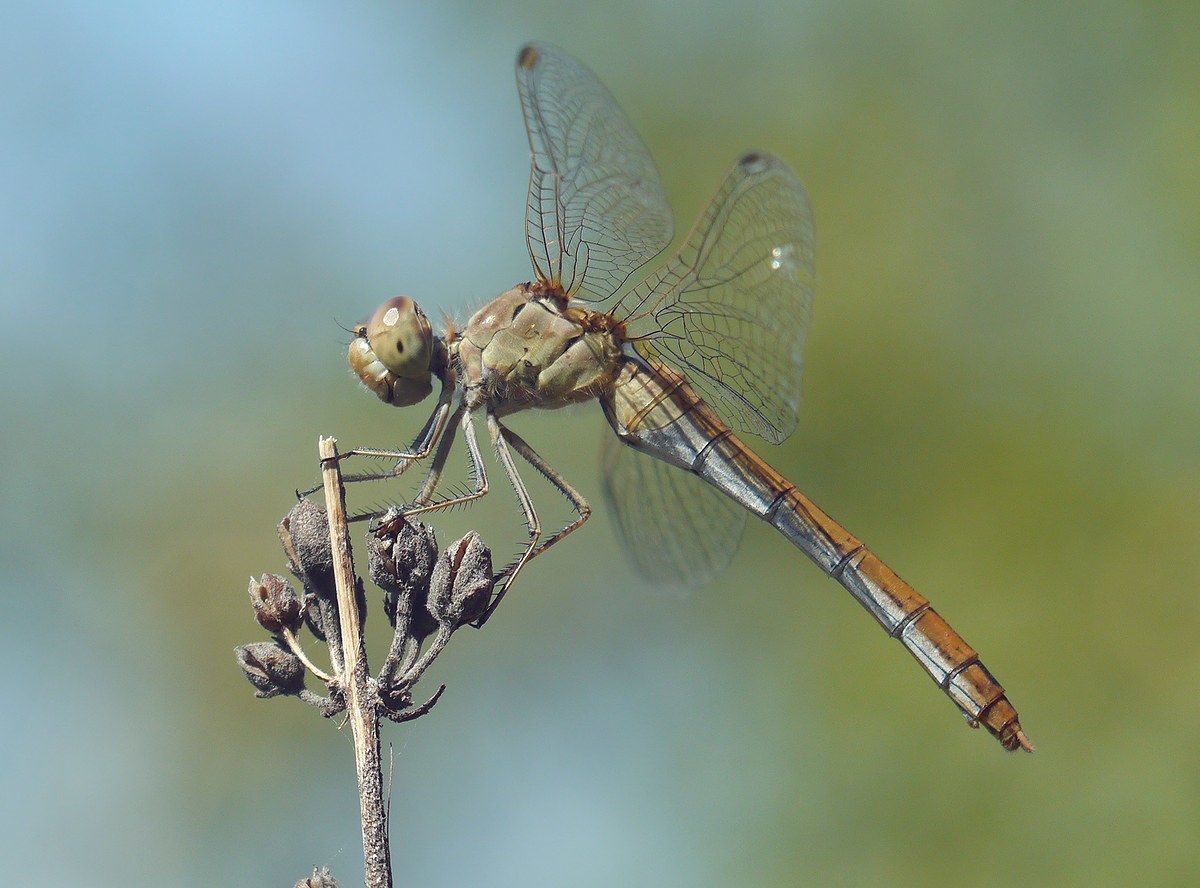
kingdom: Animalia
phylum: Arthropoda
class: Insecta
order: Odonata
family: Libellulidae
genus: Sympetrum
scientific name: Sympetrum meridionale
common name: Southern darter
